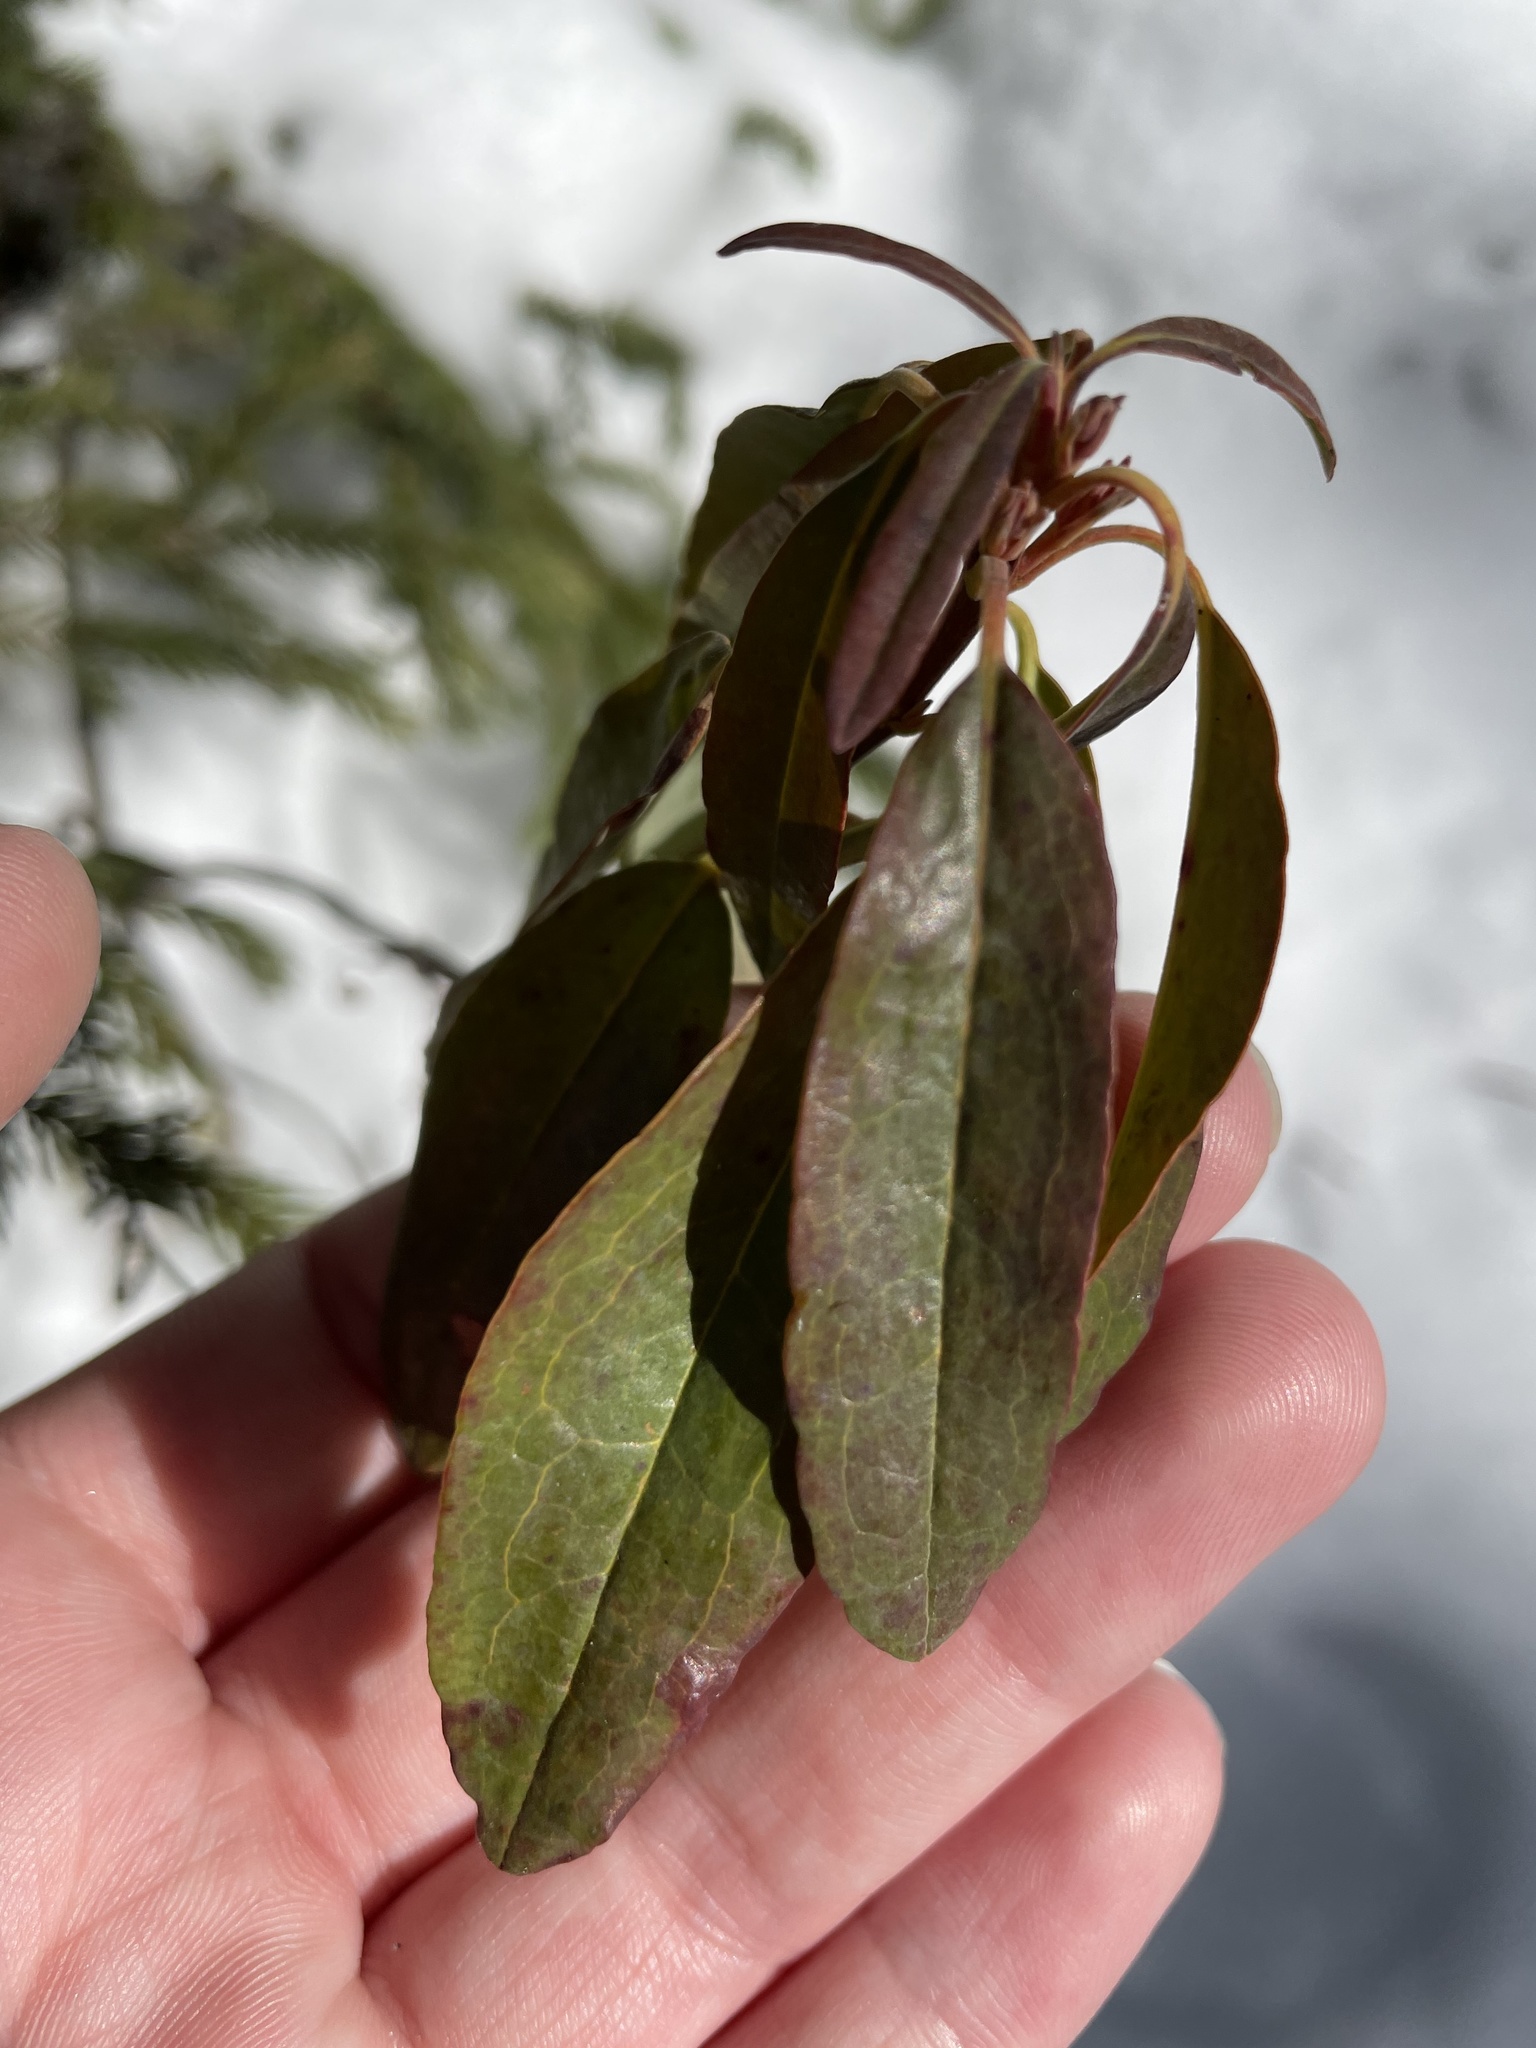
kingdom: Plantae
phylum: Tracheophyta
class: Magnoliopsida
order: Ericales
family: Ericaceae
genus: Kalmia
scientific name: Kalmia angustifolia
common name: Sheep-laurel
